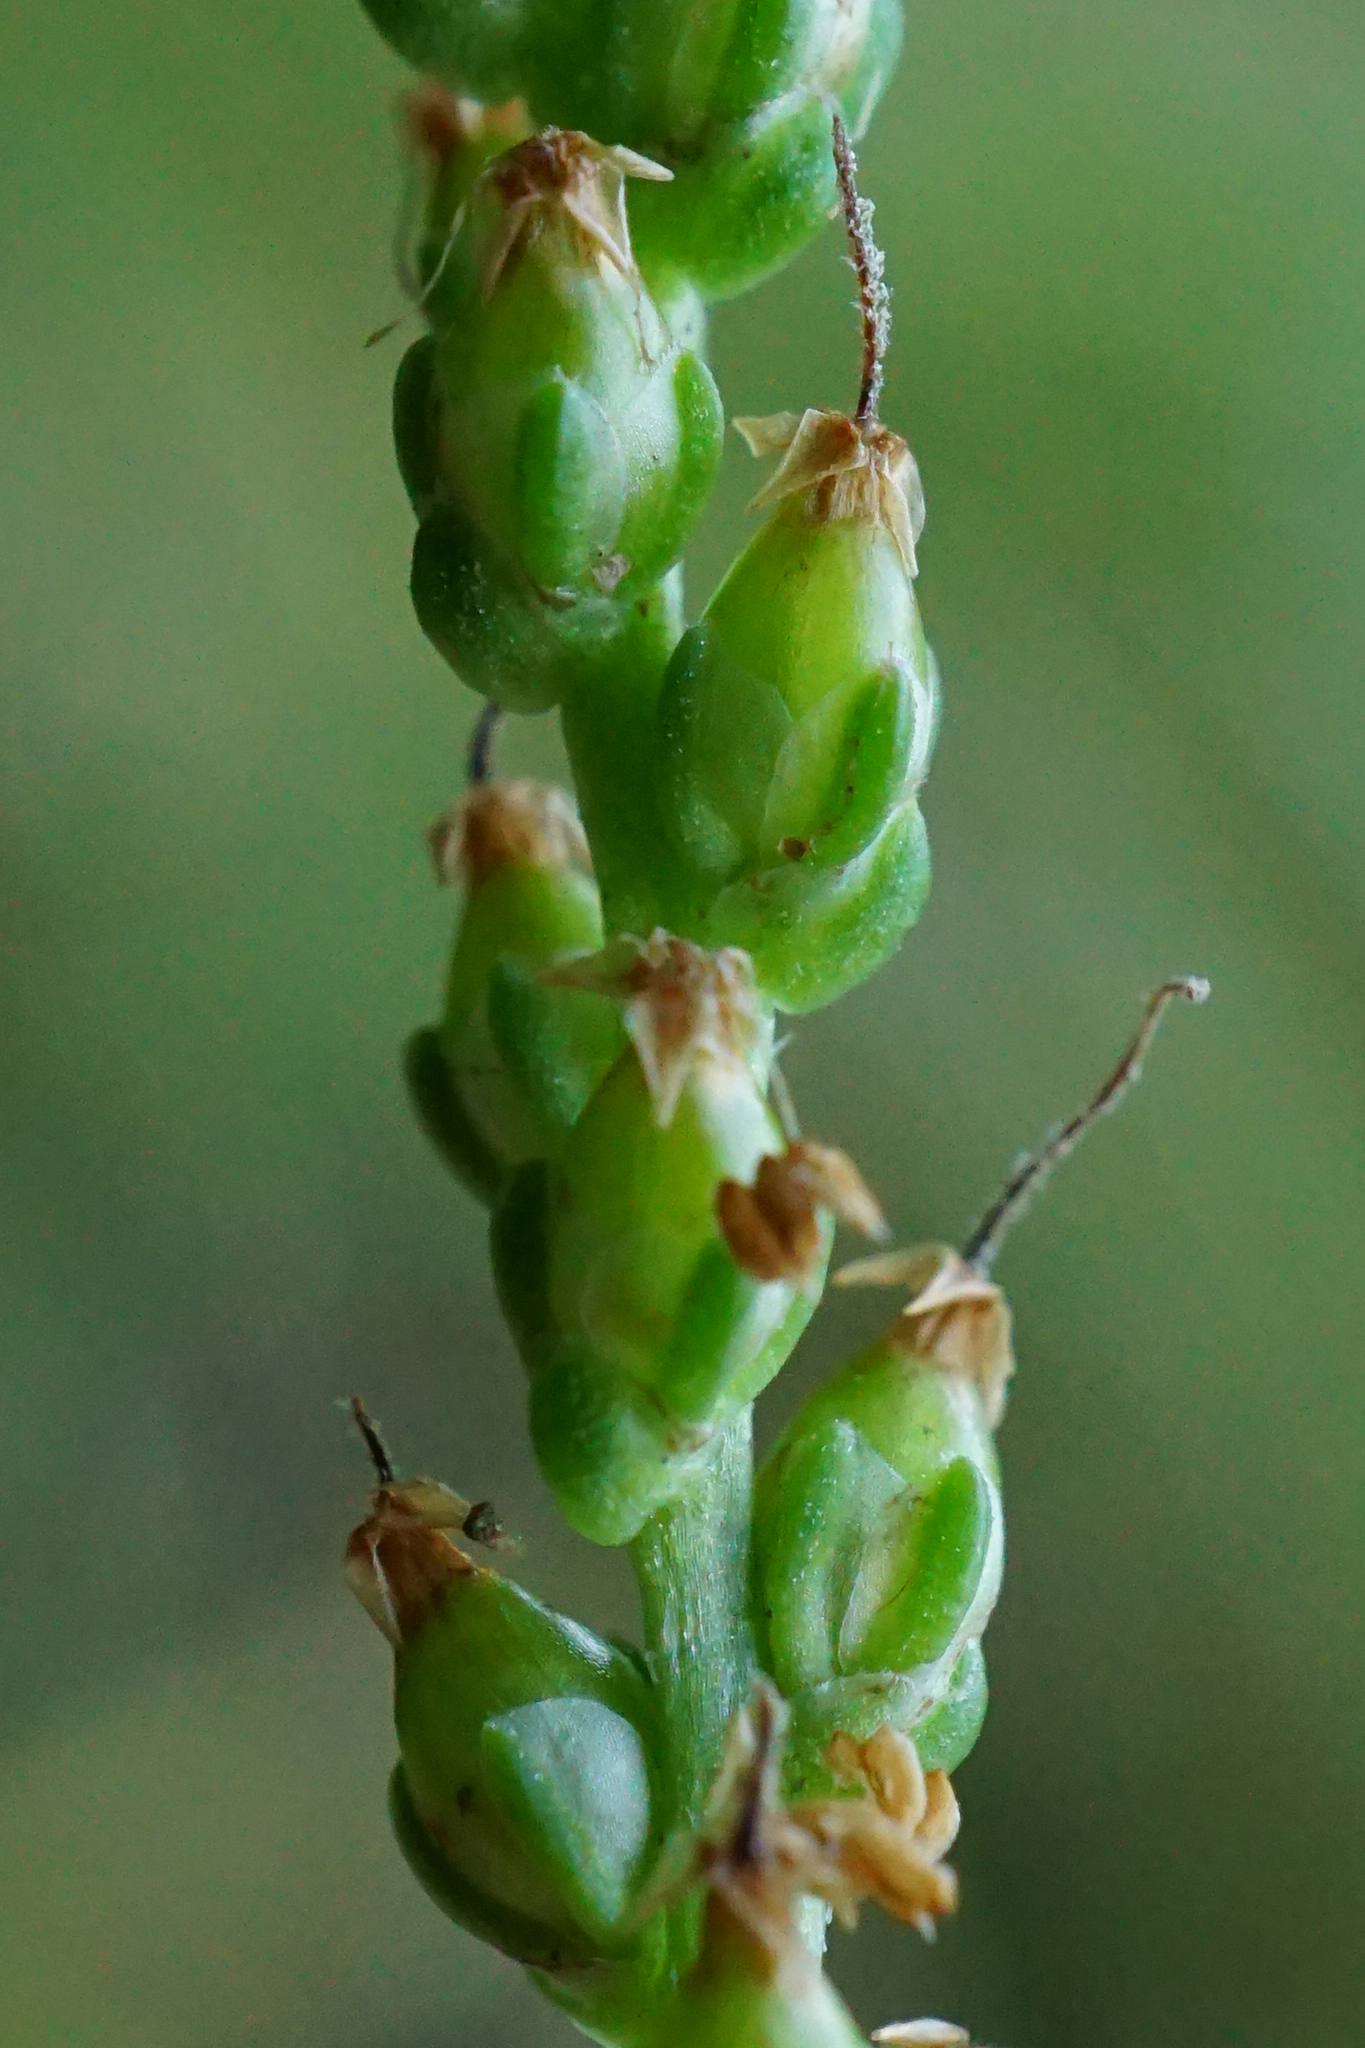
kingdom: Plantae
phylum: Tracheophyta
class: Magnoliopsida
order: Lamiales
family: Plantaginaceae
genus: Plantago
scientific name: Plantago major
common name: Common plantain
